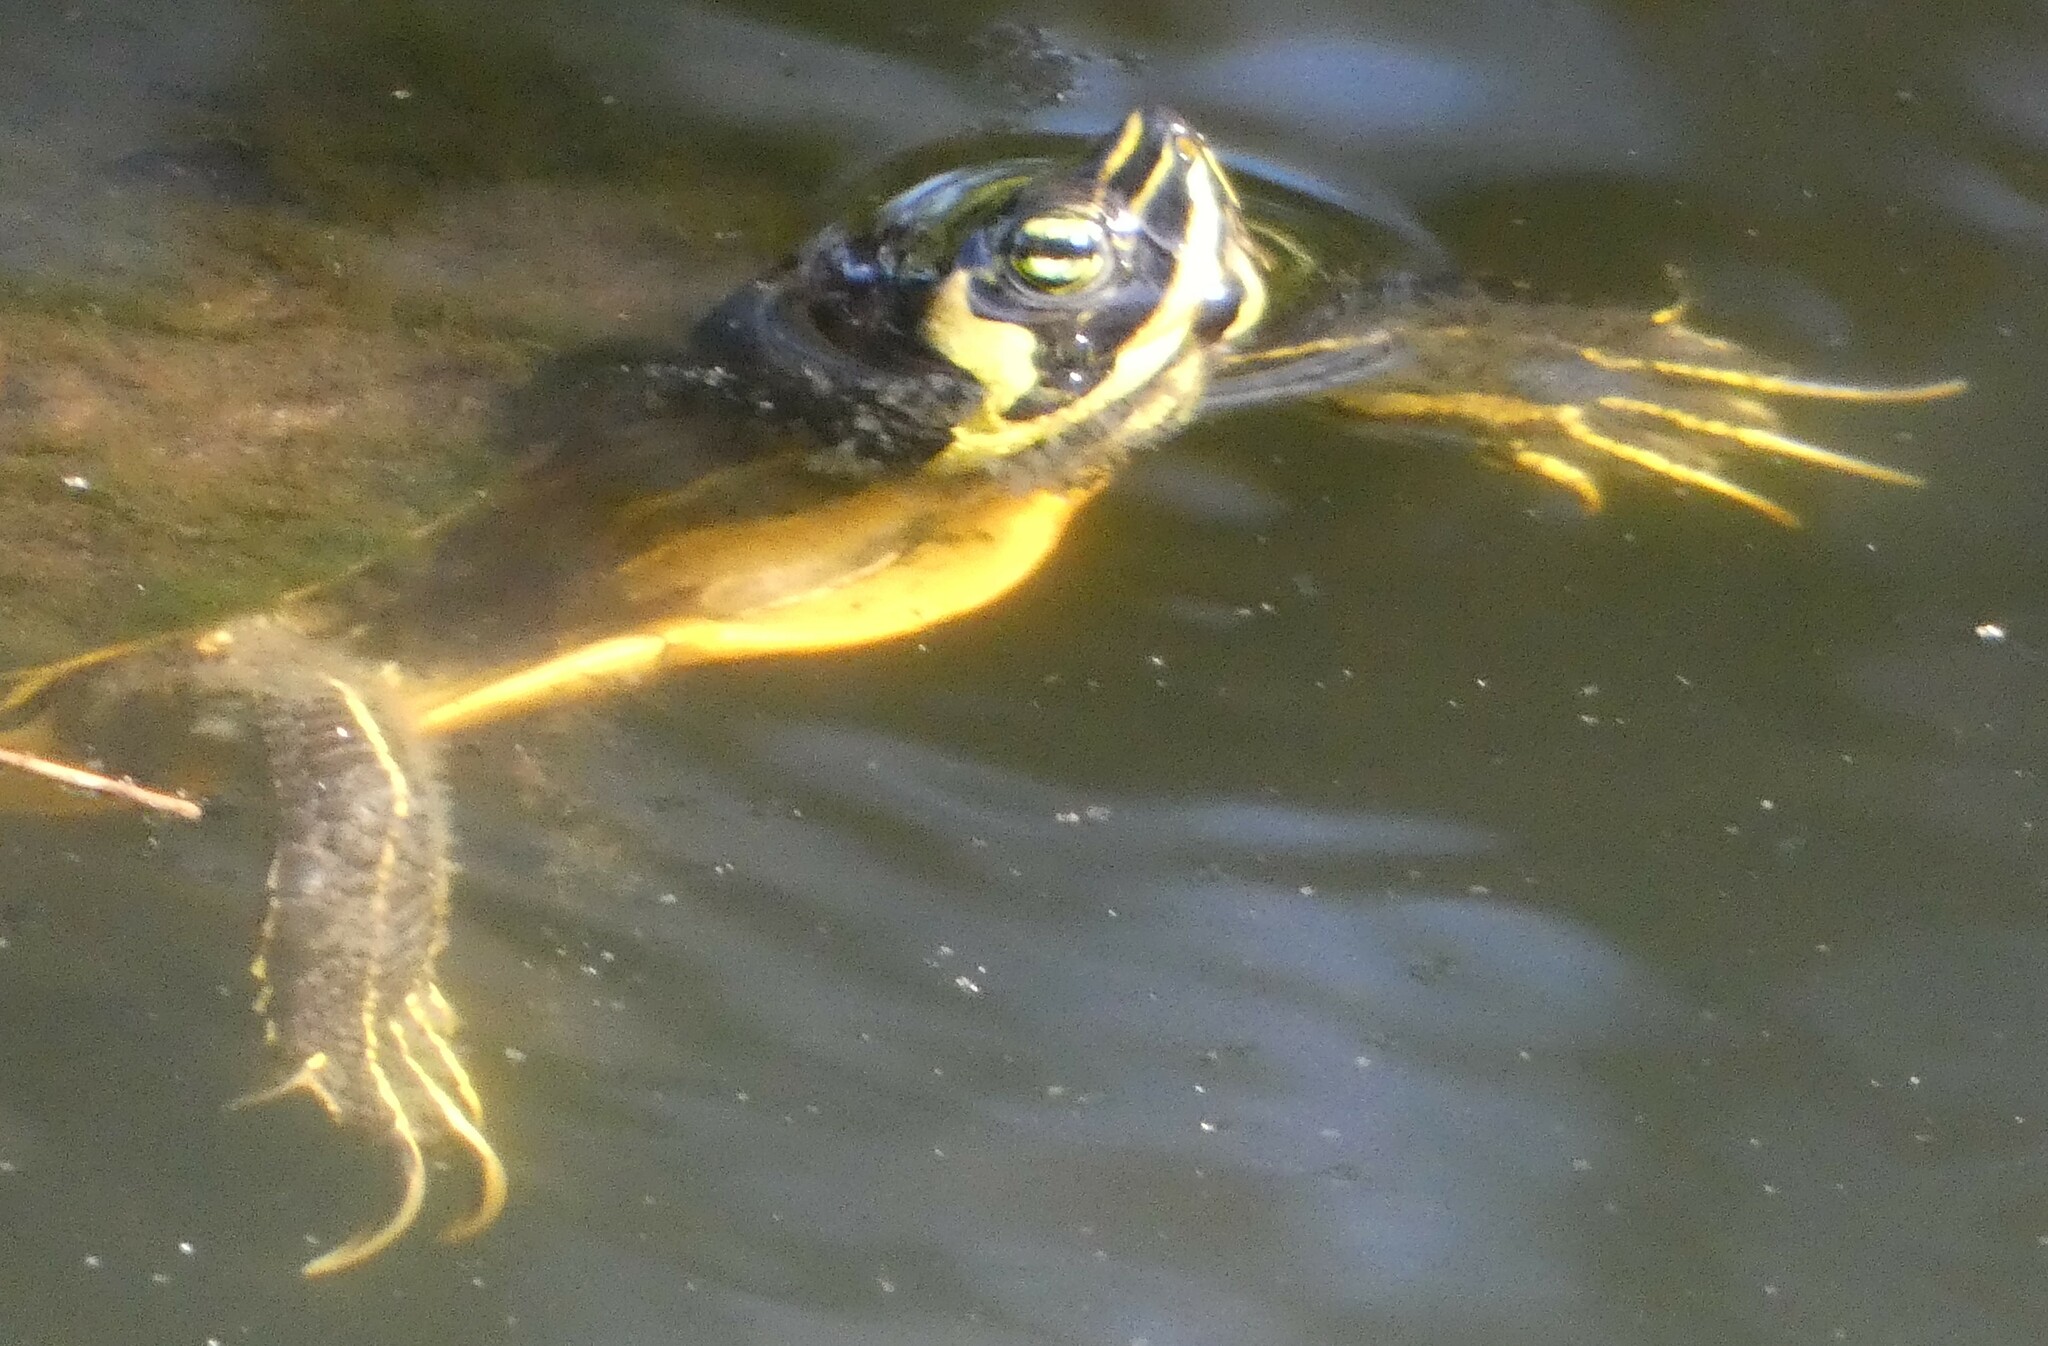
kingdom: Animalia
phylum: Chordata
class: Testudines
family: Emydidae
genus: Trachemys
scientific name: Trachemys scripta
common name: Slider
